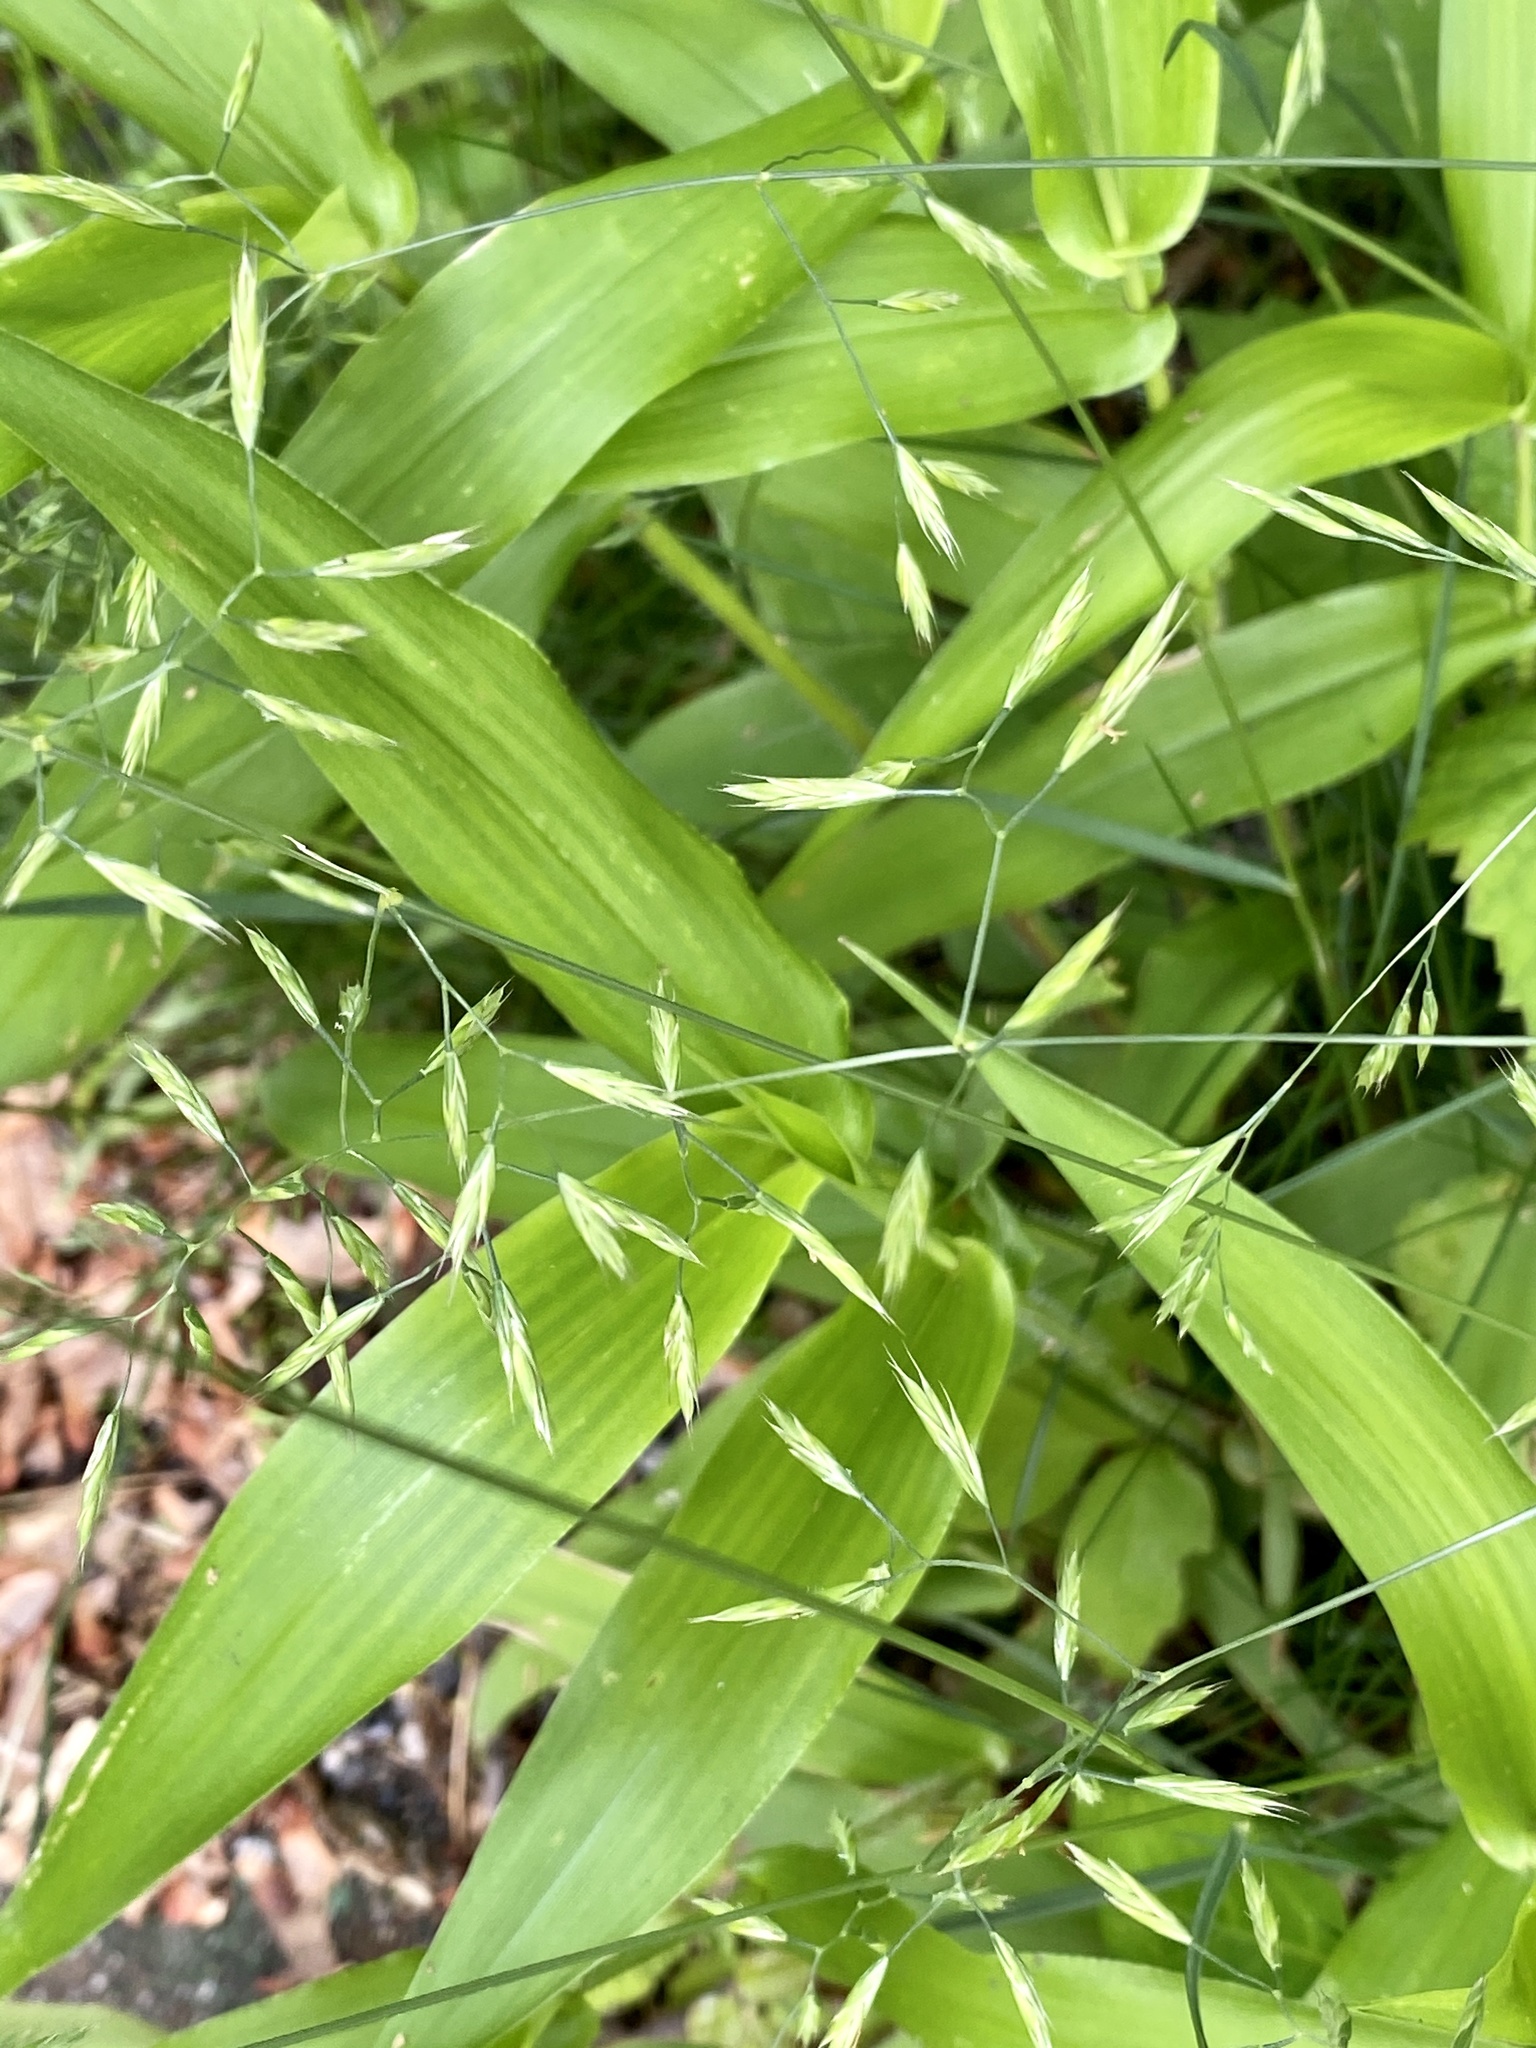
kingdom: Plantae
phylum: Tracheophyta
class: Liliopsida
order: Poales
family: Poaceae
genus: Dichanthelium
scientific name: Dichanthelium clandestinum
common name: Deer-tongue grass
